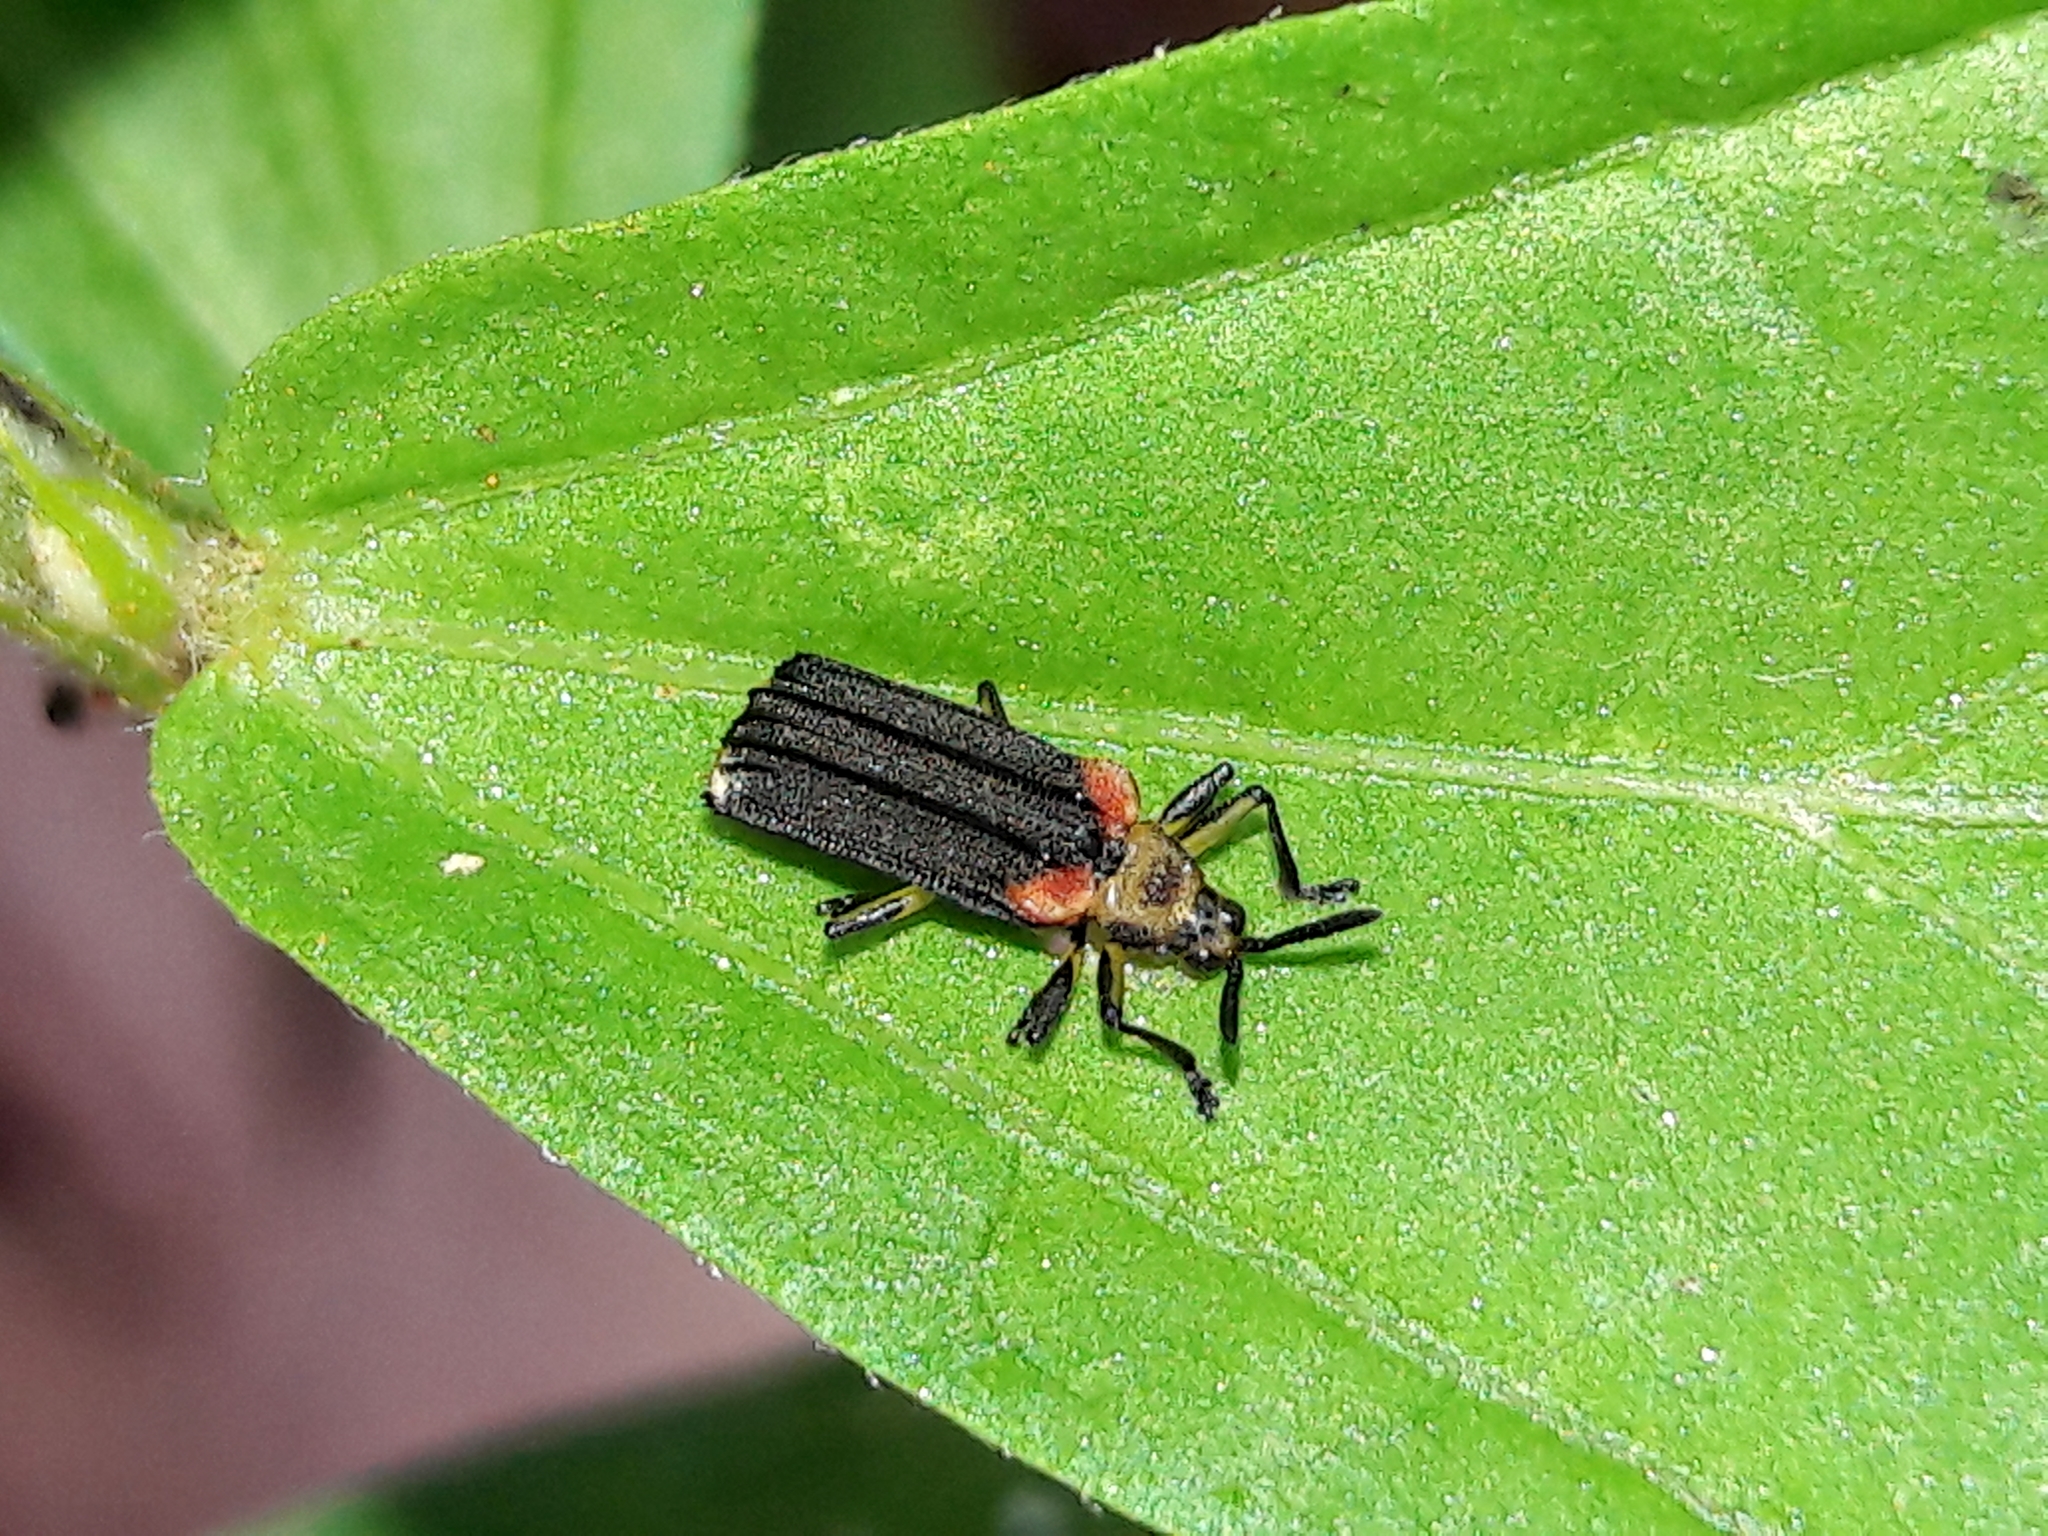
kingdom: Animalia
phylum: Arthropoda
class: Insecta
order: Coleoptera
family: Chrysomelidae
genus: Heterispa
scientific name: Heterispa vinula
